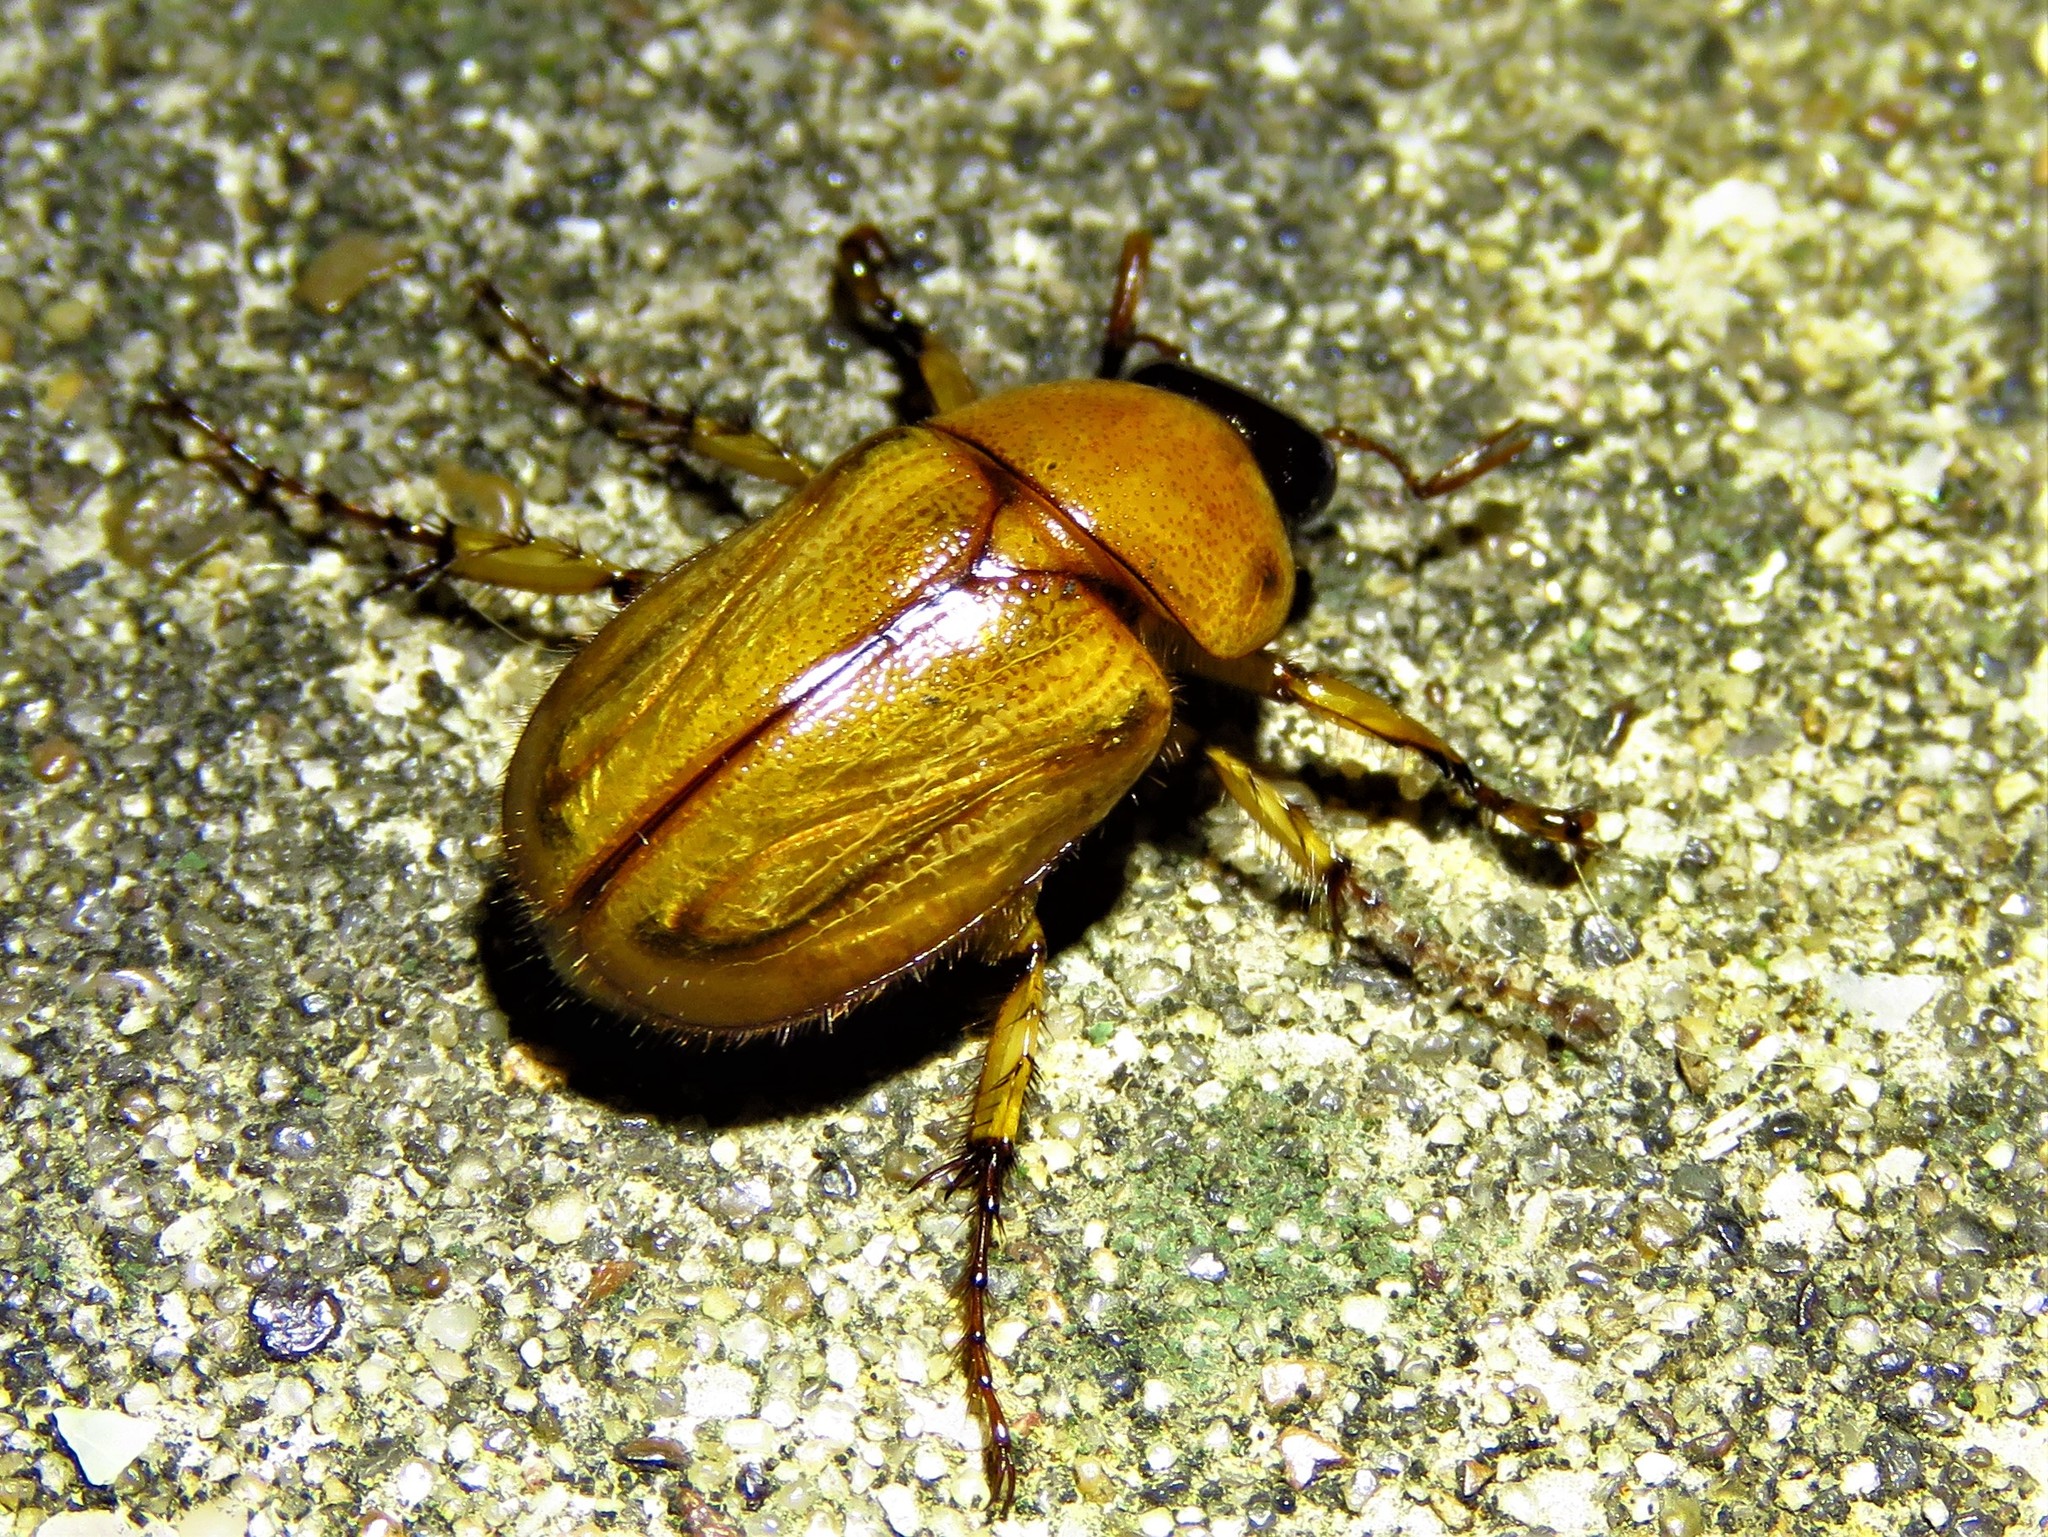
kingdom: Animalia
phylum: Arthropoda
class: Insecta
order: Coleoptera
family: Scarabaeidae
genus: Cyclocephala
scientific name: Cyclocephala lurida
